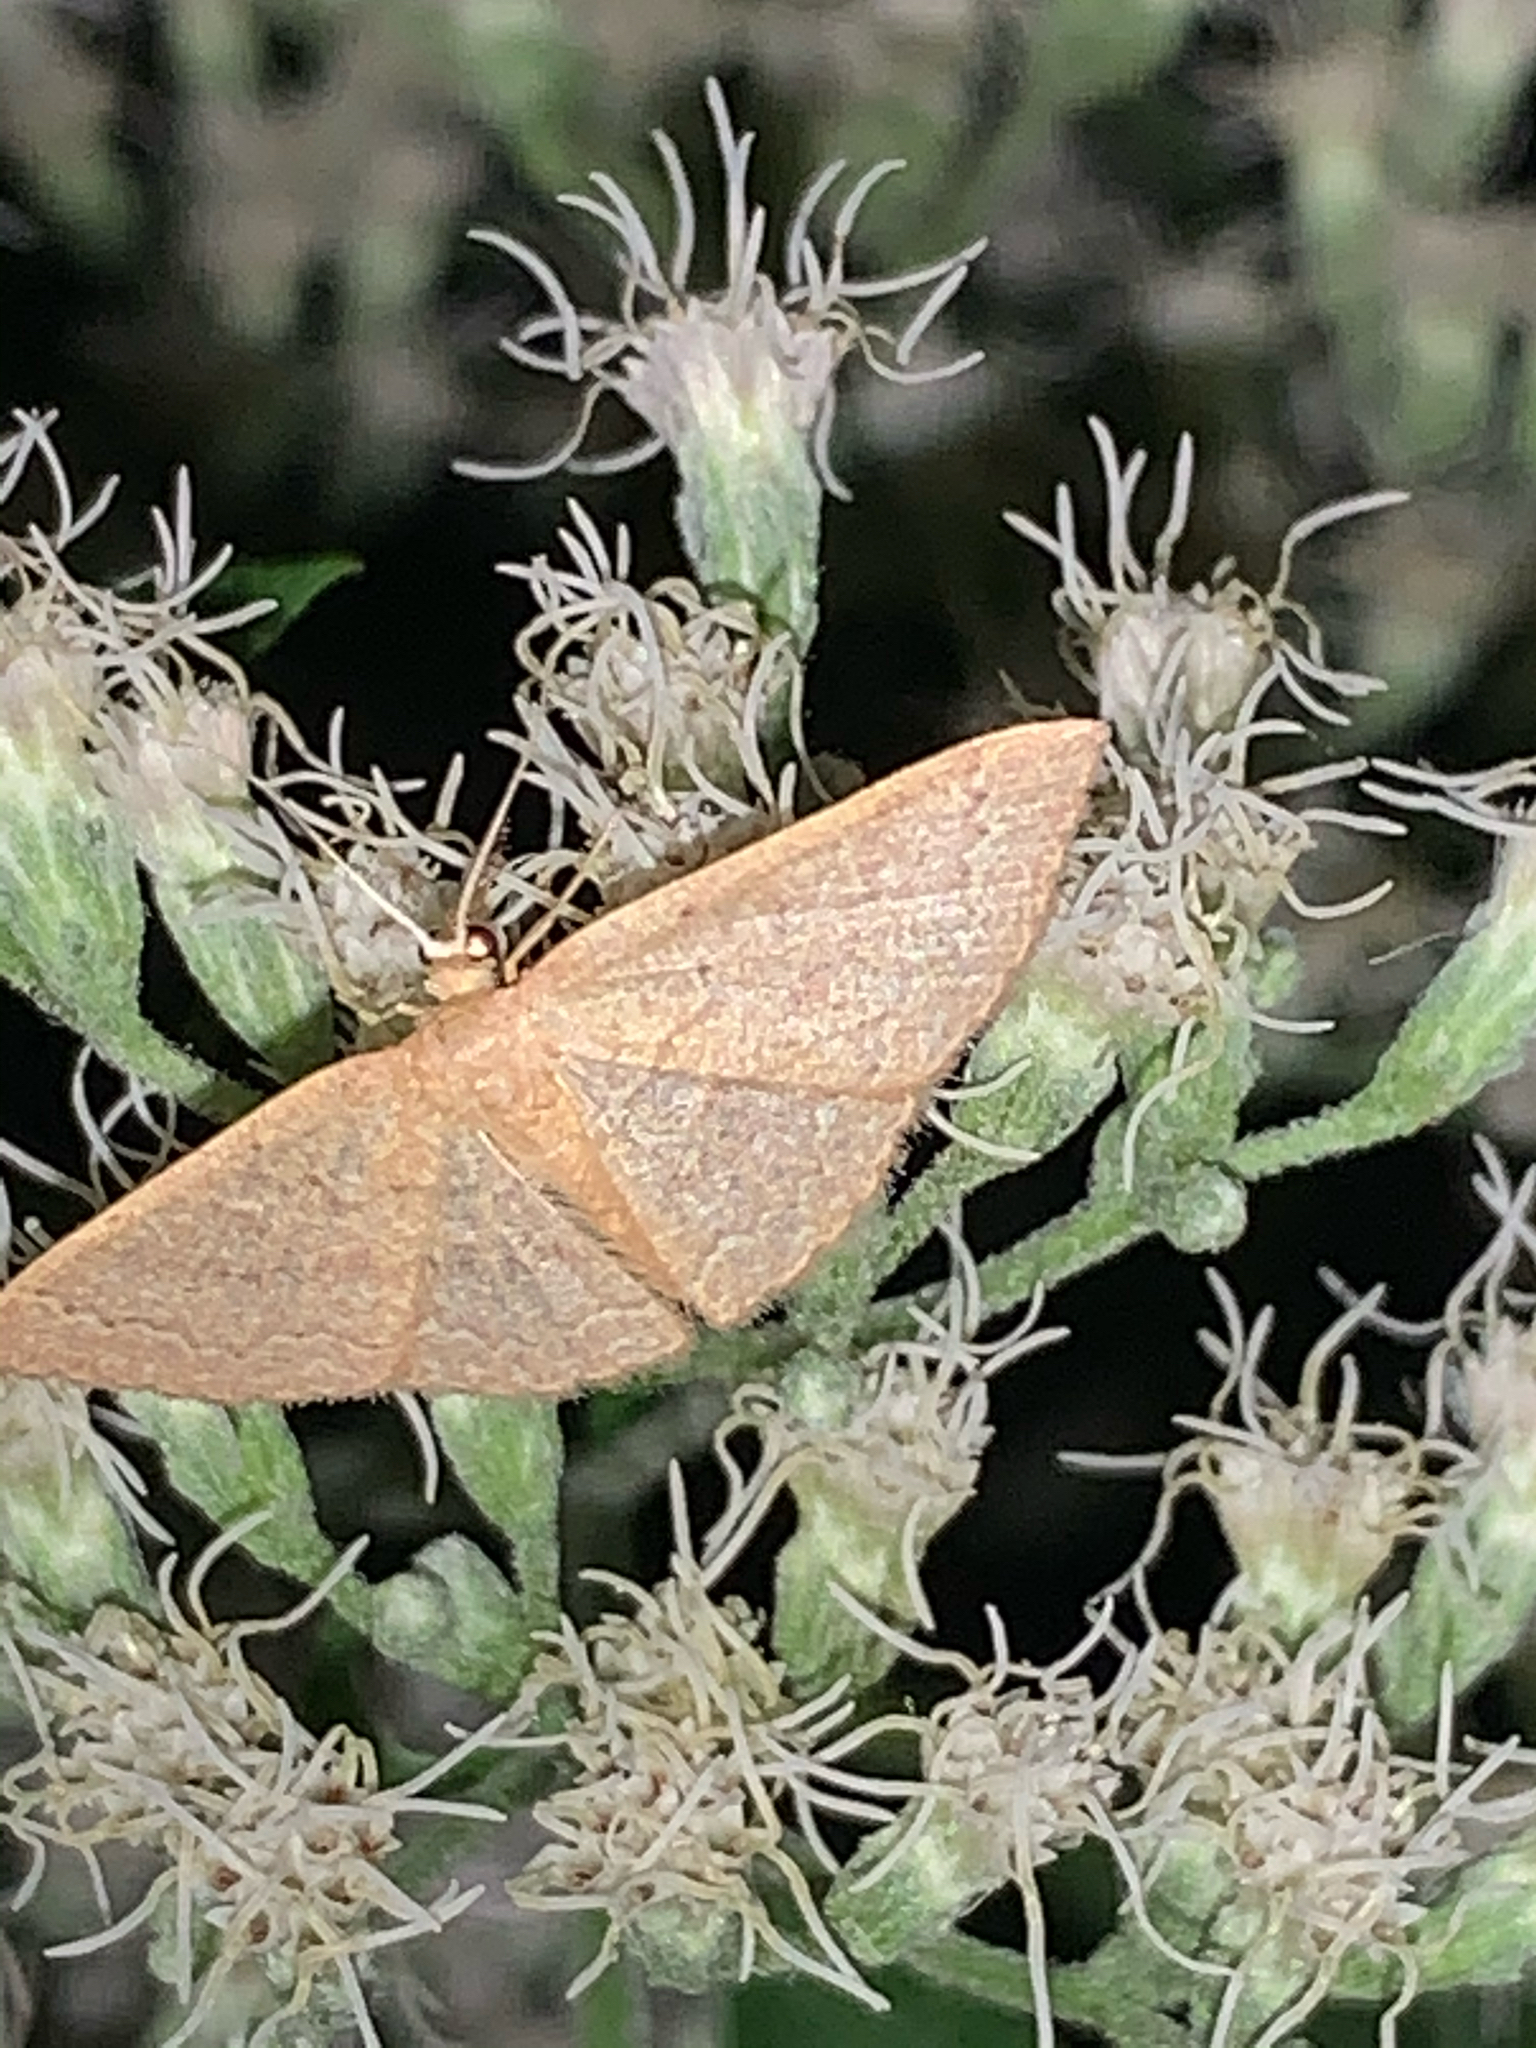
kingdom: Animalia
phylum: Arthropoda
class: Insecta
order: Lepidoptera
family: Geometridae
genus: Pleuroprucha
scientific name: Pleuroprucha insulsaria
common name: Common tan wave
